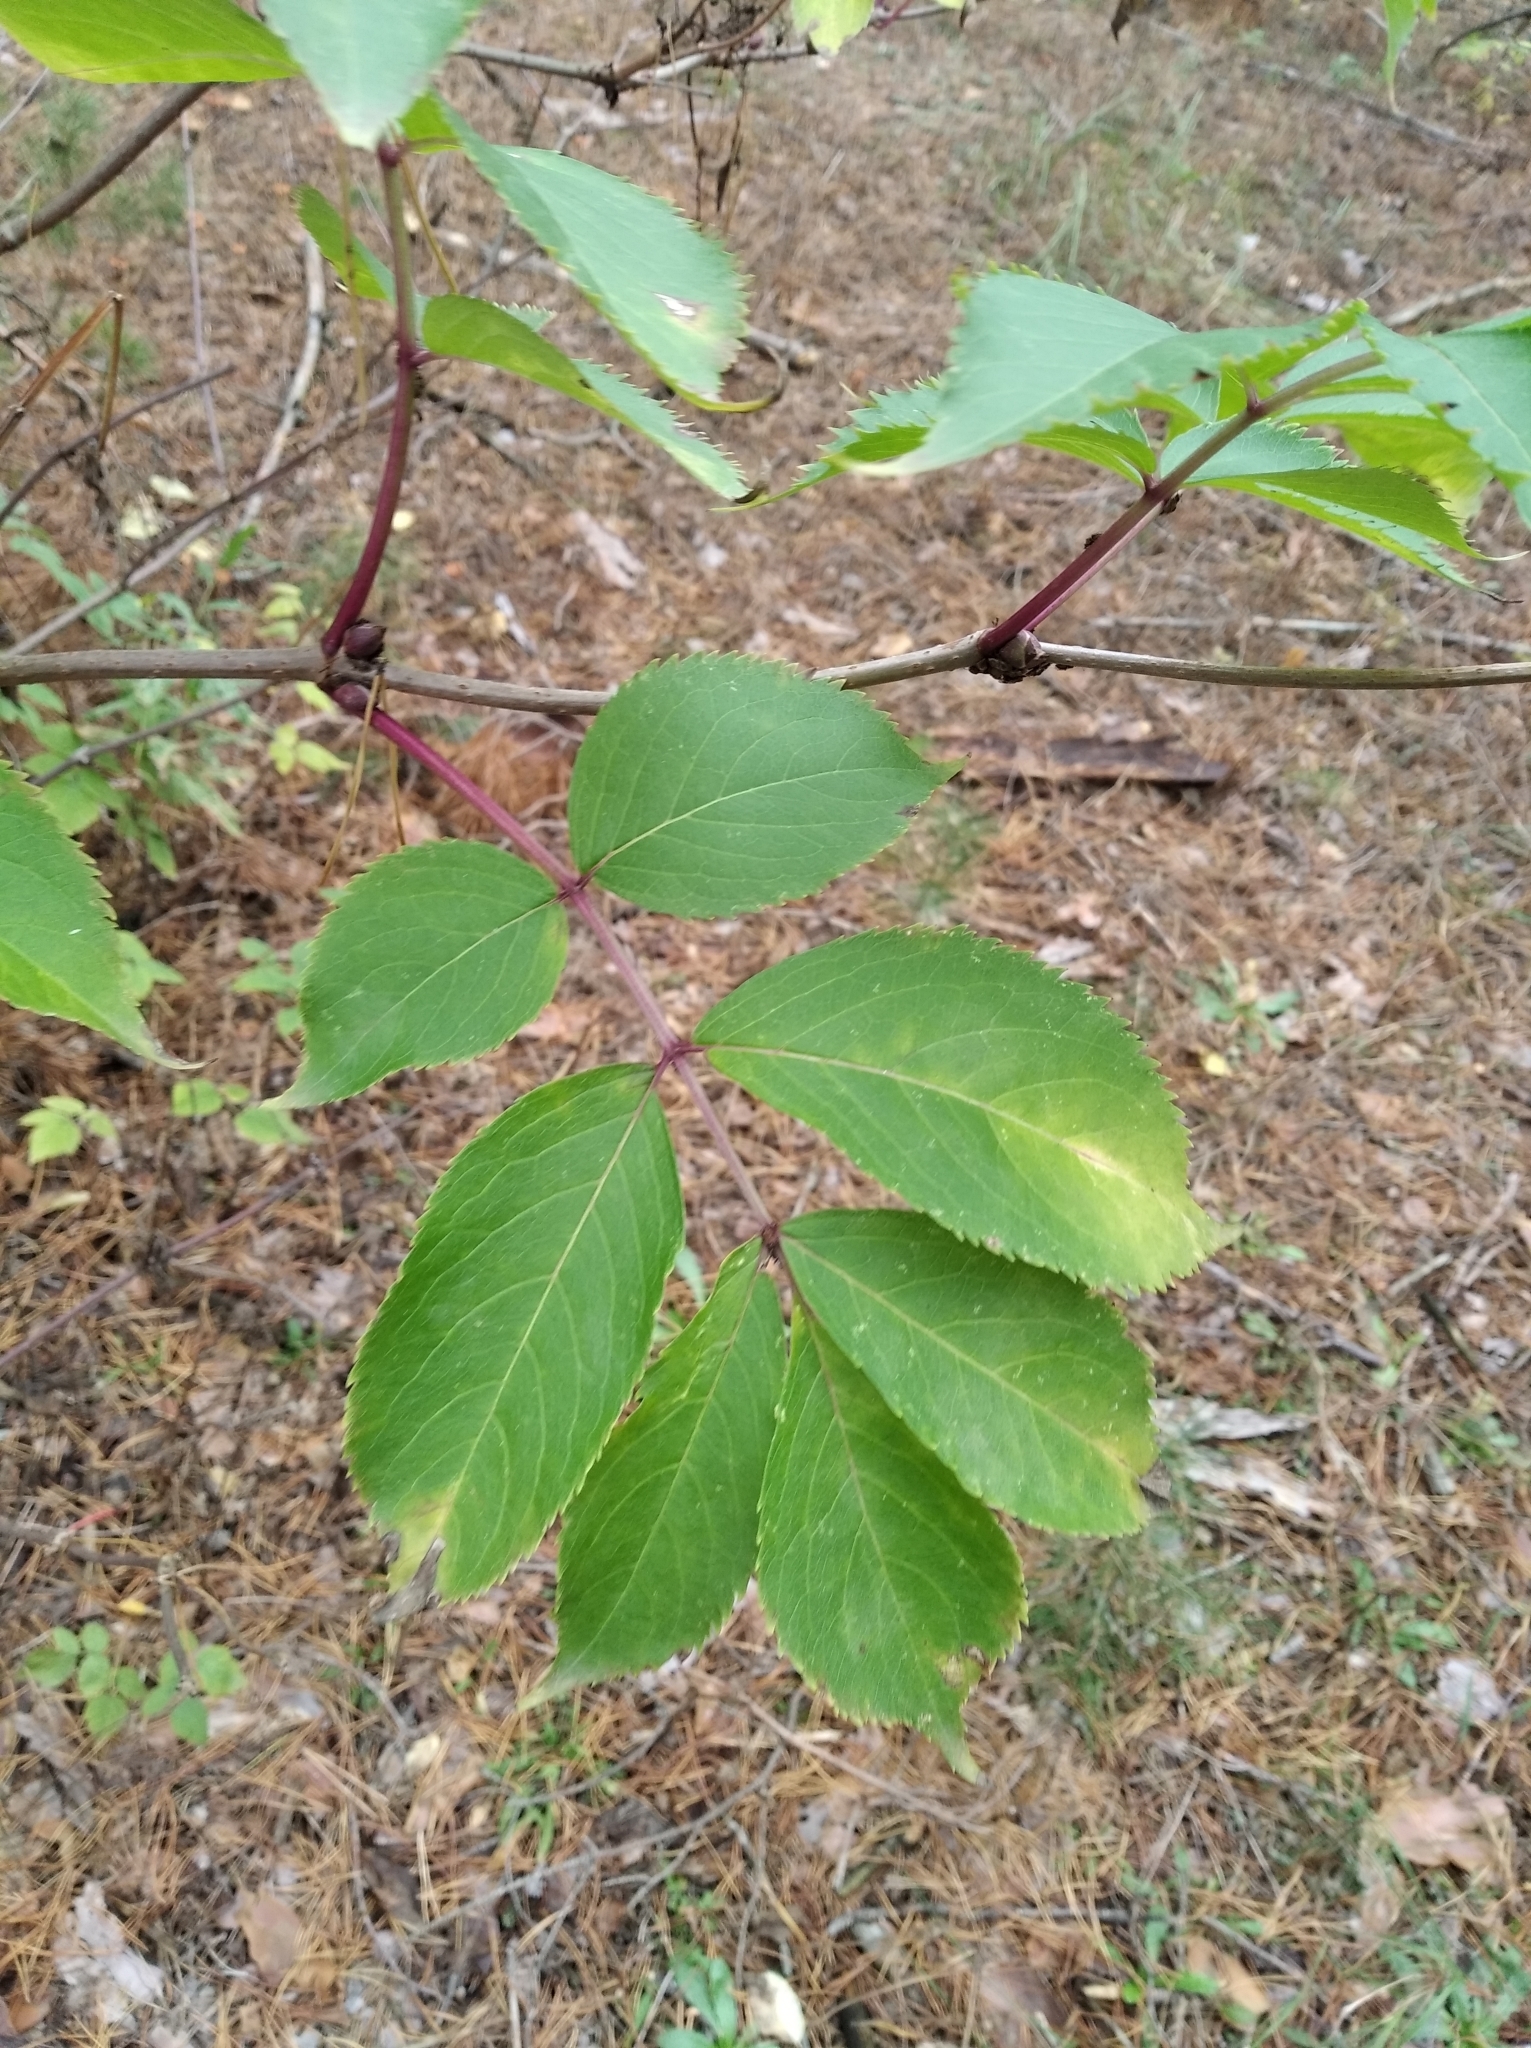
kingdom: Plantae
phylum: Tracheophyta
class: Magnoliopsida
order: Dipsacales
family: Viburnaceae
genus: Sambucus
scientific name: Sambucus racemosa
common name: Red-berried elder
